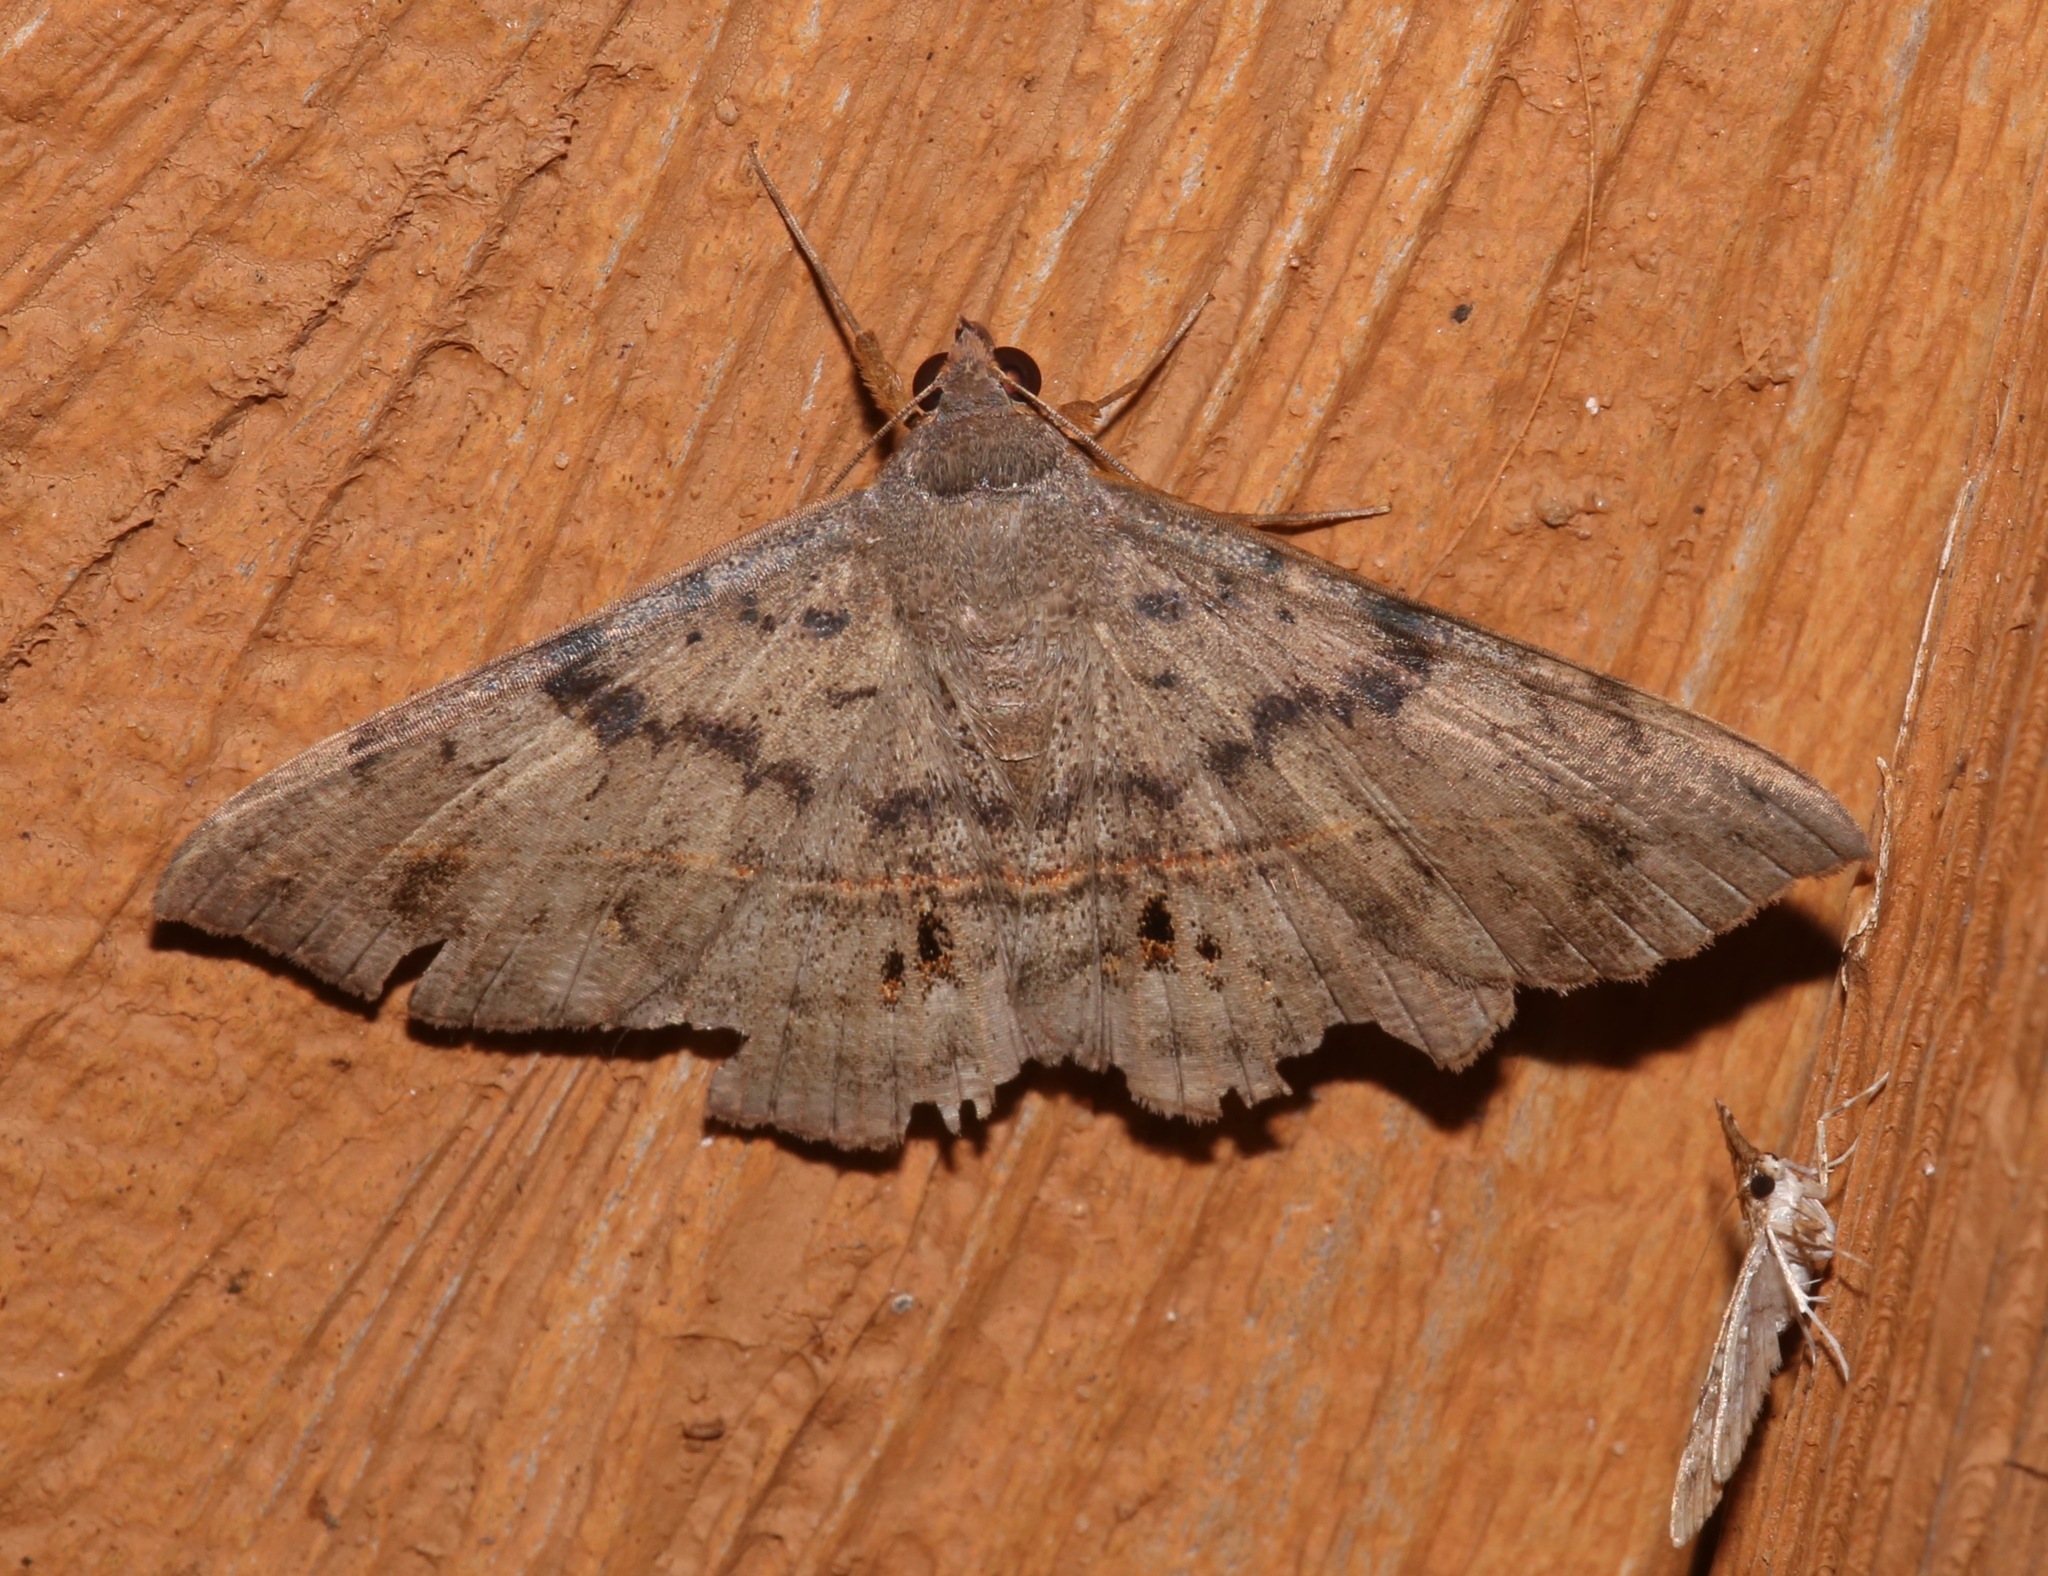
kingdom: Animalia
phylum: Arthropoda
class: Insecta
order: Lepidoptera
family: Erebidae
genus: Anticarsia
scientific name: Anticarsia gemmatalis
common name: Cutworm moth
